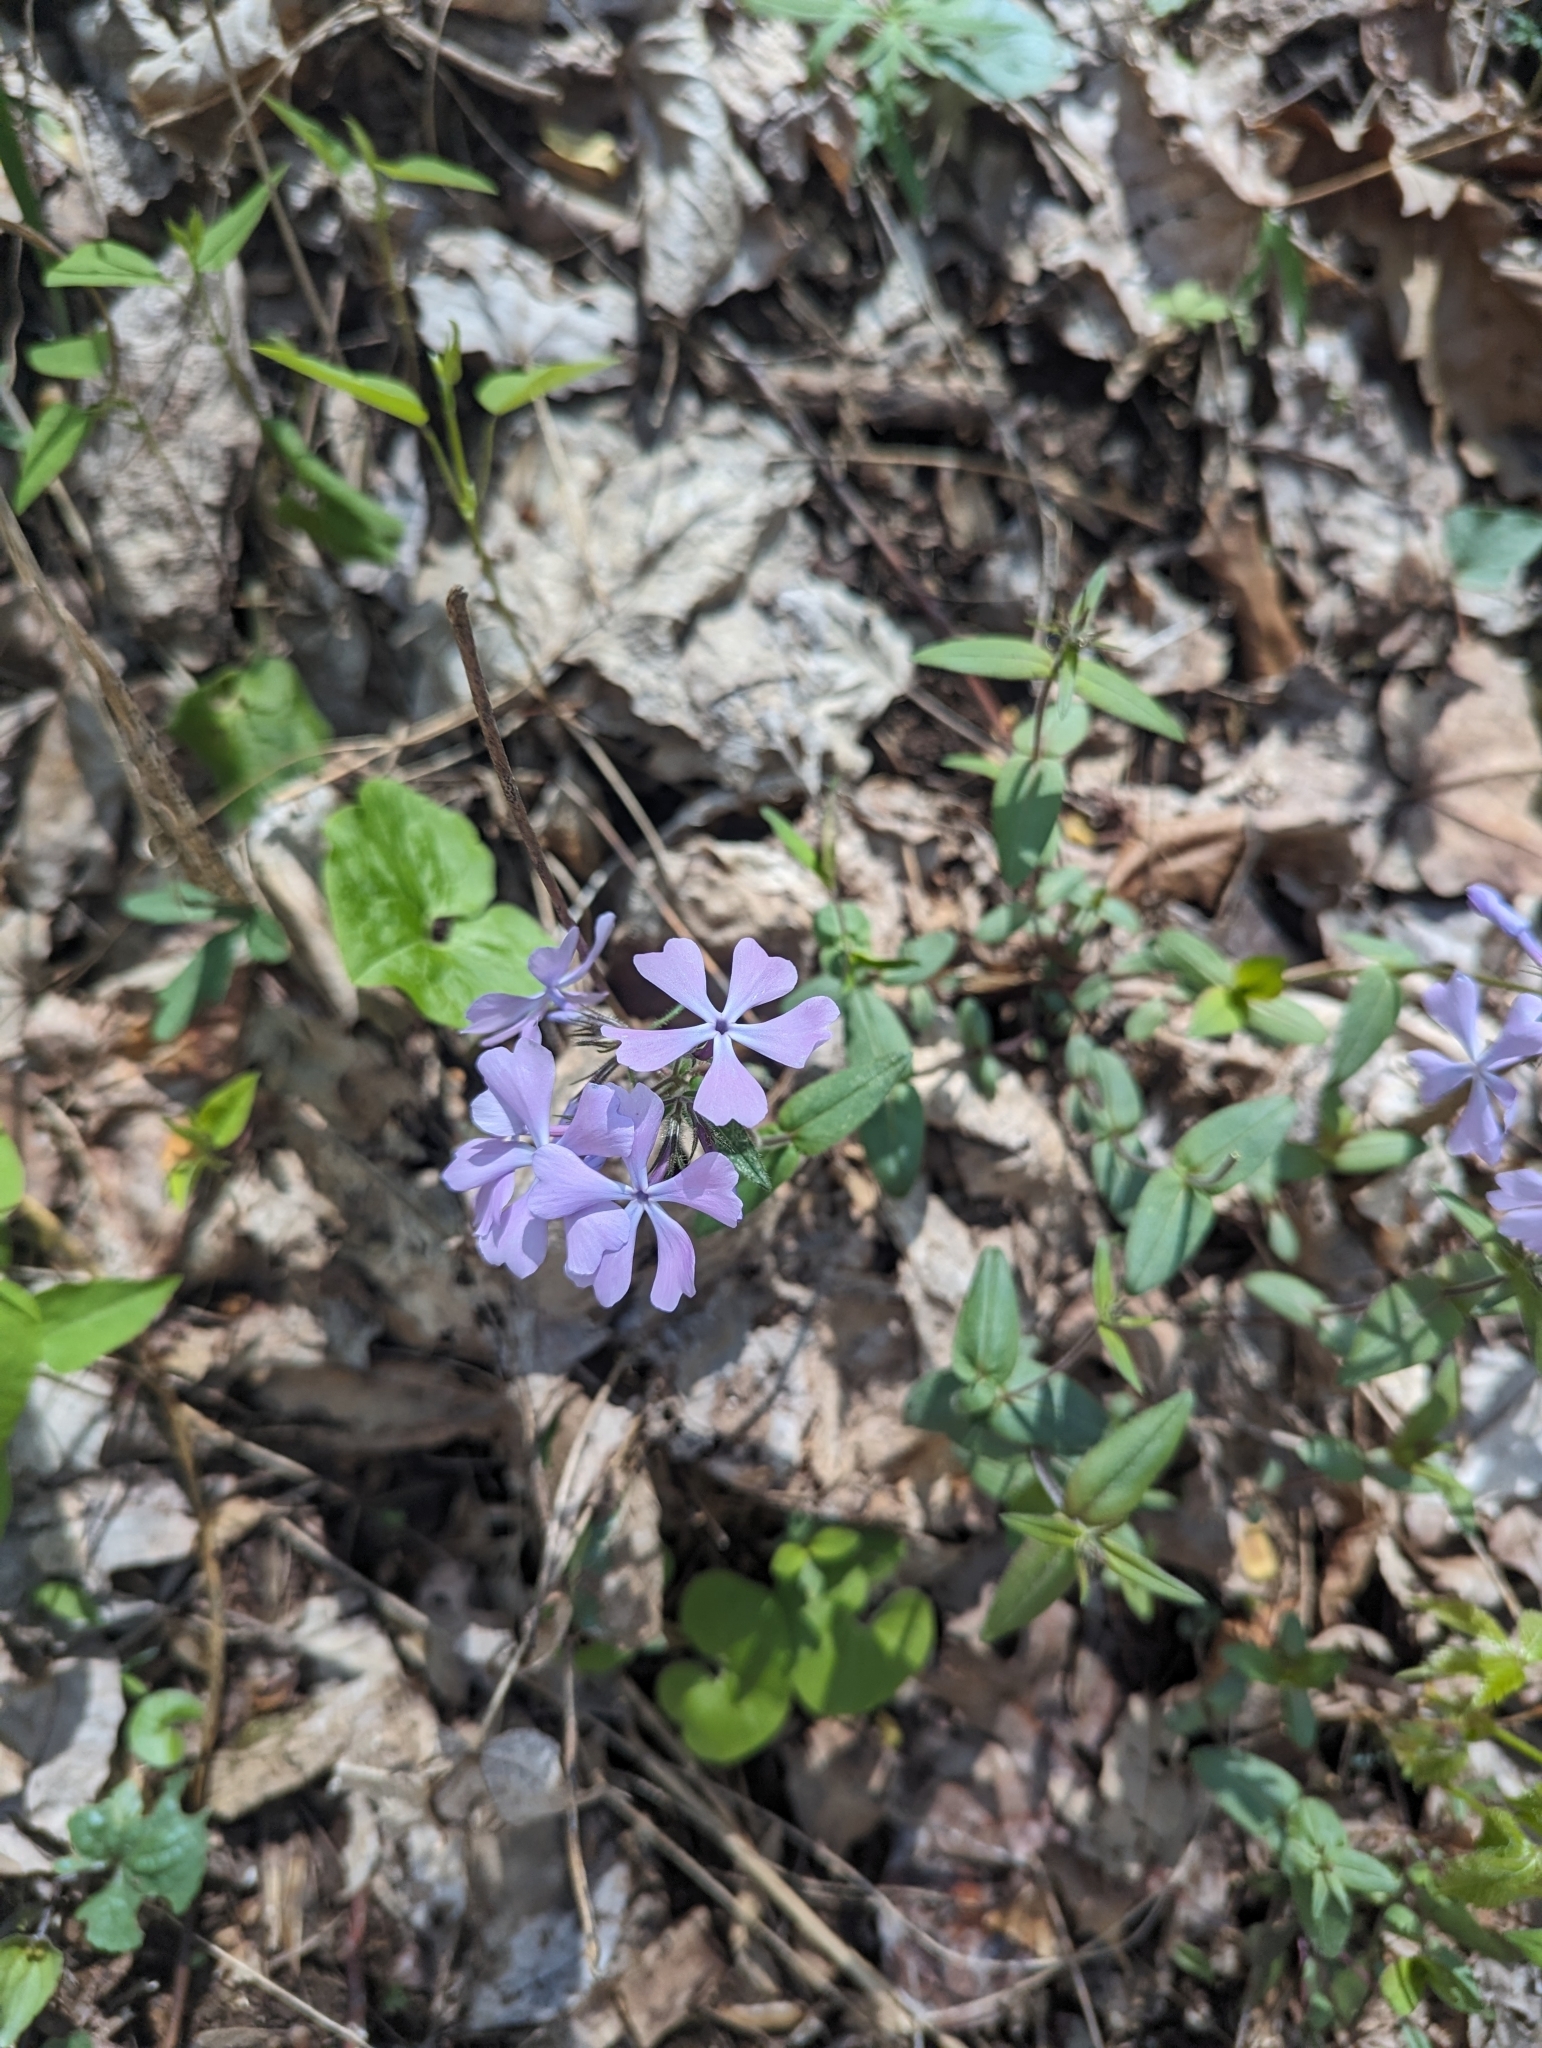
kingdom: Plantae
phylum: Tracheophyta
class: Magnoliopsida
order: Ericales
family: Polemoniaceae
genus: Phlox
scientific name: Phlox divaricata
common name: Blue phlox
